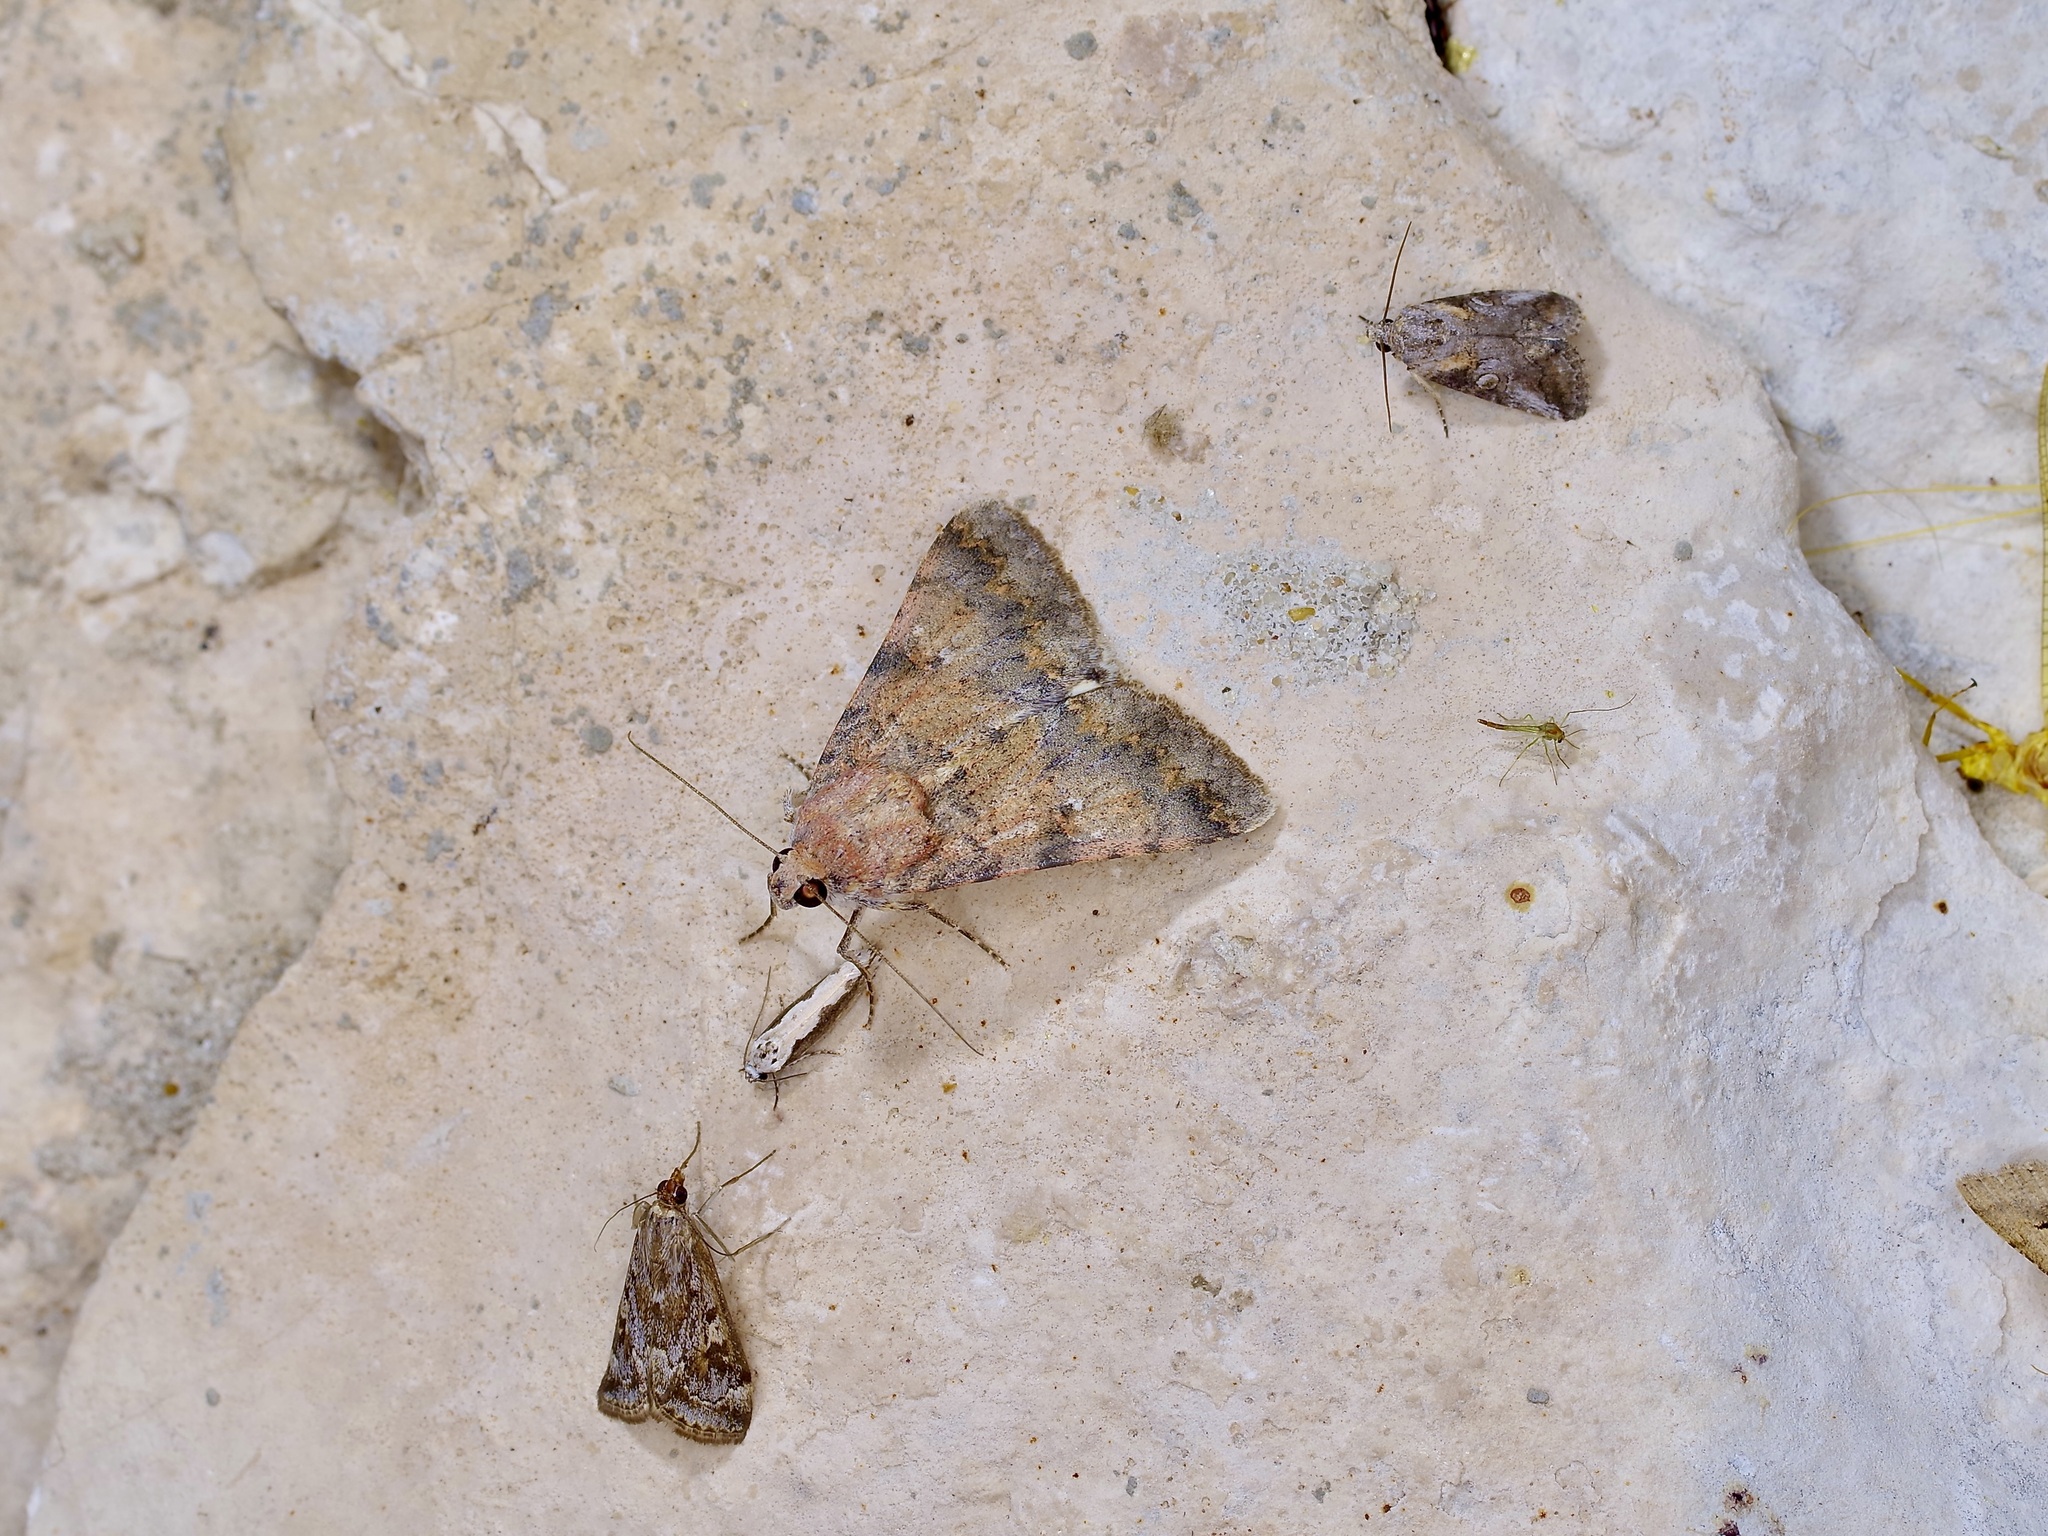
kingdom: Animalia
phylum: Arthropoda
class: Insecta
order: Lepidoptera
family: Erebidae
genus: Melipotis
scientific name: Melipotis jucunda
